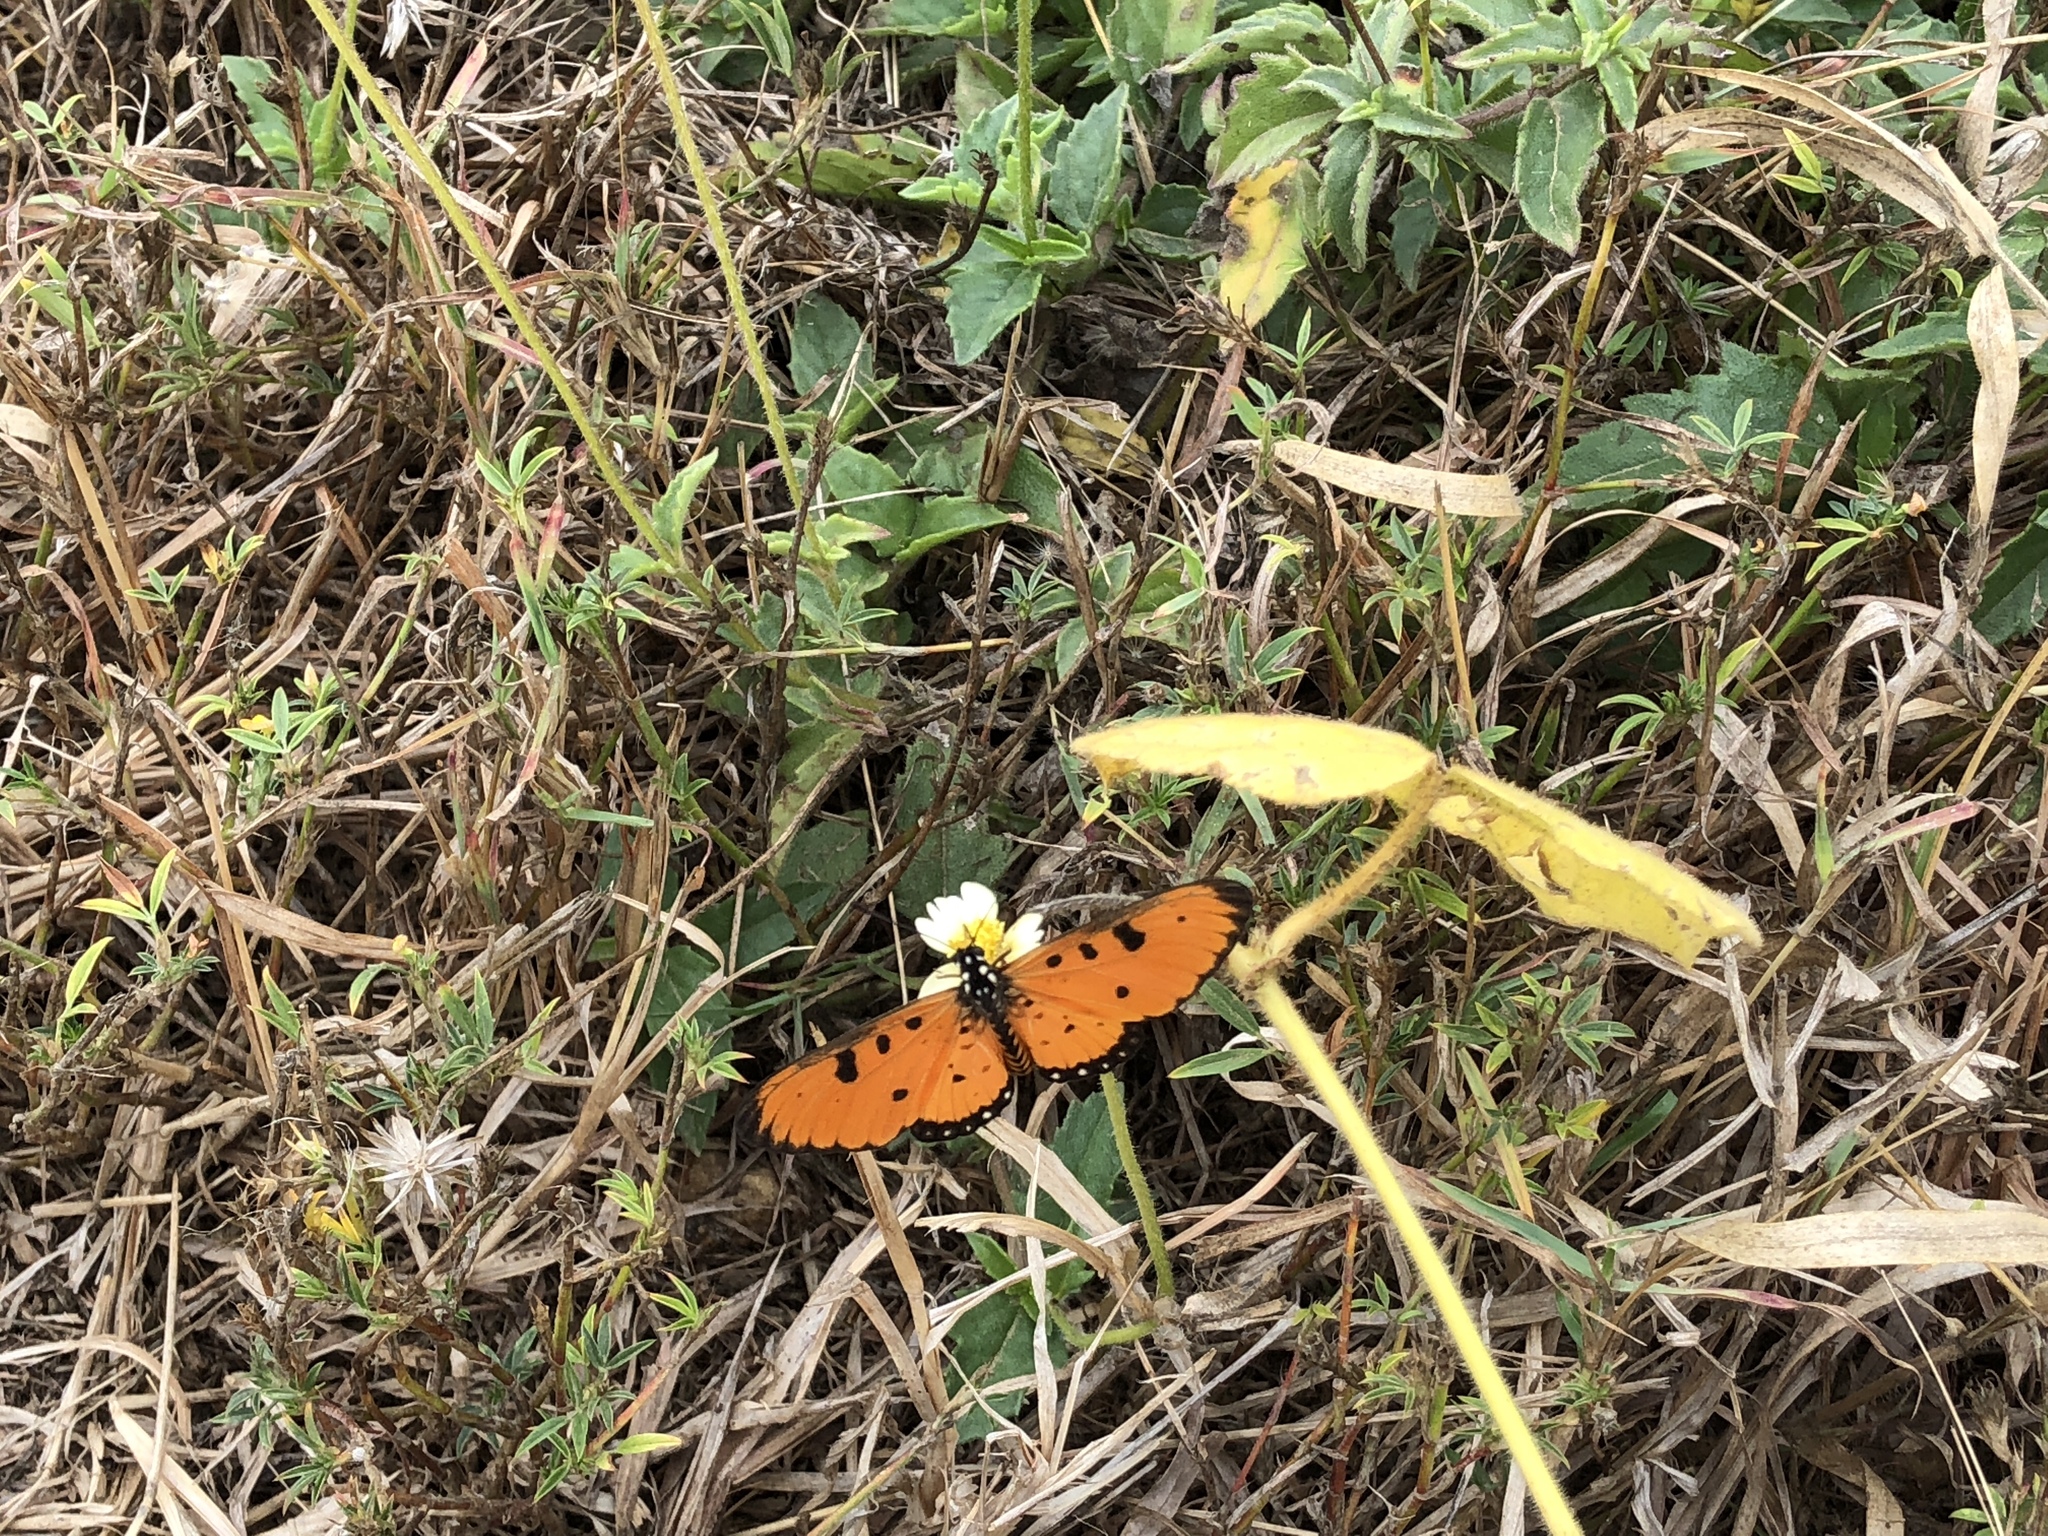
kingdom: Animalia
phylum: Arthropoda
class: Insecta
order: Lepidoptera
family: Nymphalidae
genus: Acraea
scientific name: Acraea terpsicore
